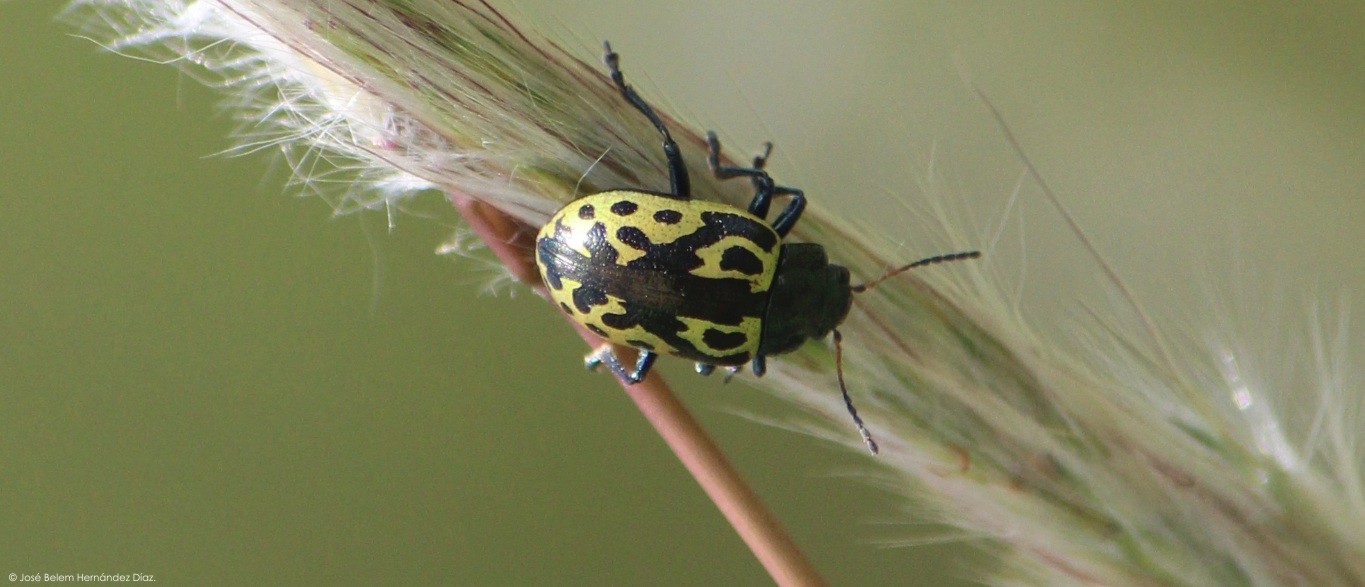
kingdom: Animalia
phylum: Arthropoda
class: Insecta
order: Coleoptera
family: Chrysomelidae
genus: Calligrapha
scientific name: Calligrapha
